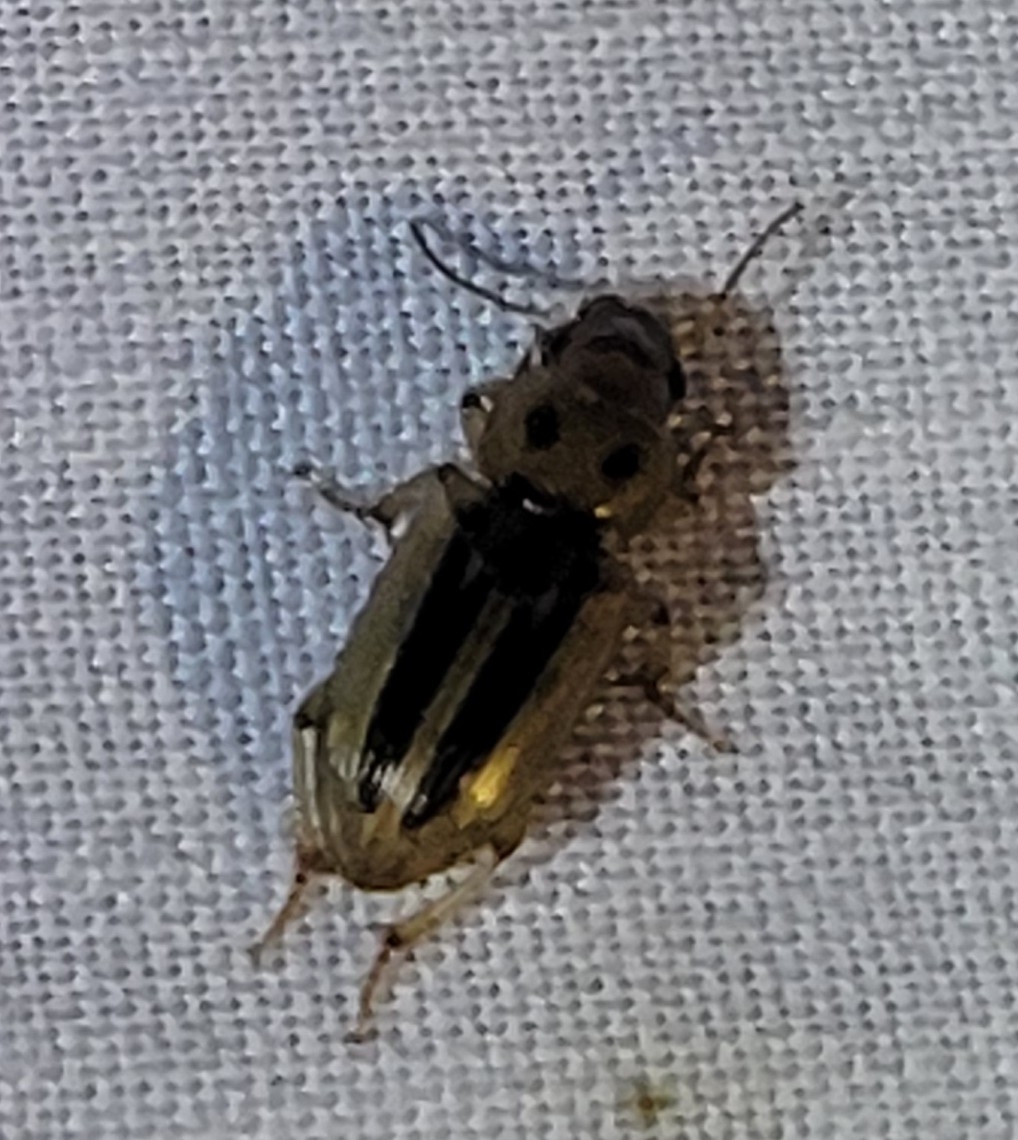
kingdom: Animalia
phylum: Arthropoda
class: Insecta
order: Coleoptera
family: Carabidae
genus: Stenolophus
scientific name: Stenolophus lineola
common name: Lined stenolophus
